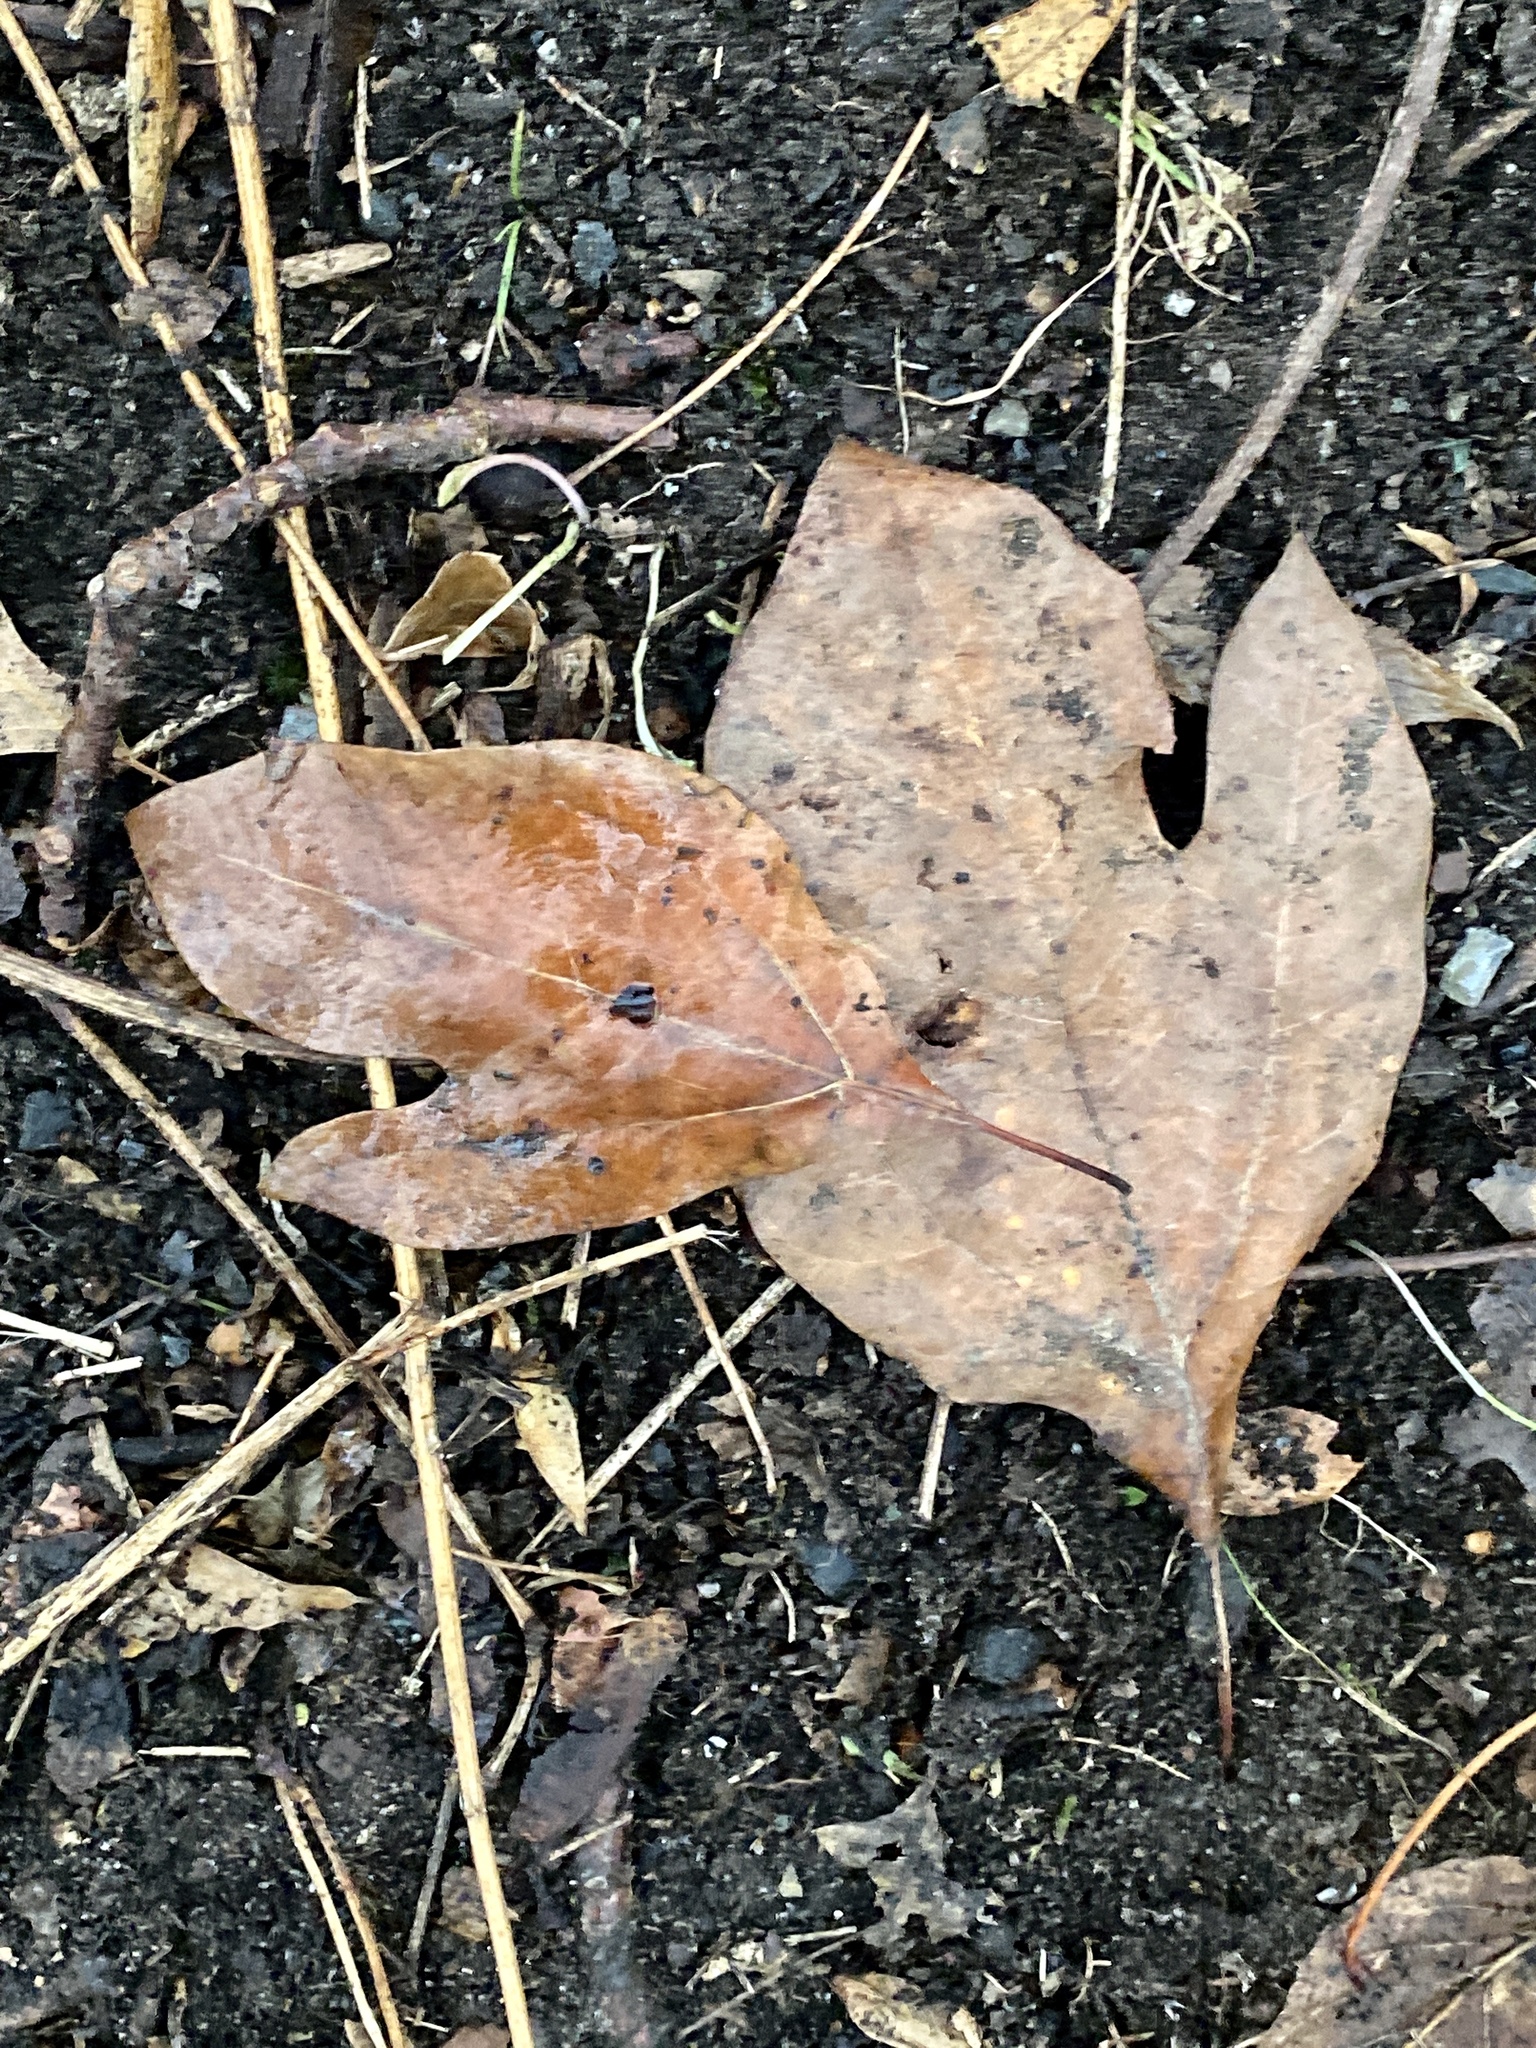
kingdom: Plantae
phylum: Tracheophyta
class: Magnoliopsida
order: Laurales
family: Lauraceae
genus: Sassafras
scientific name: Sassafras albidum
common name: Sassafras
